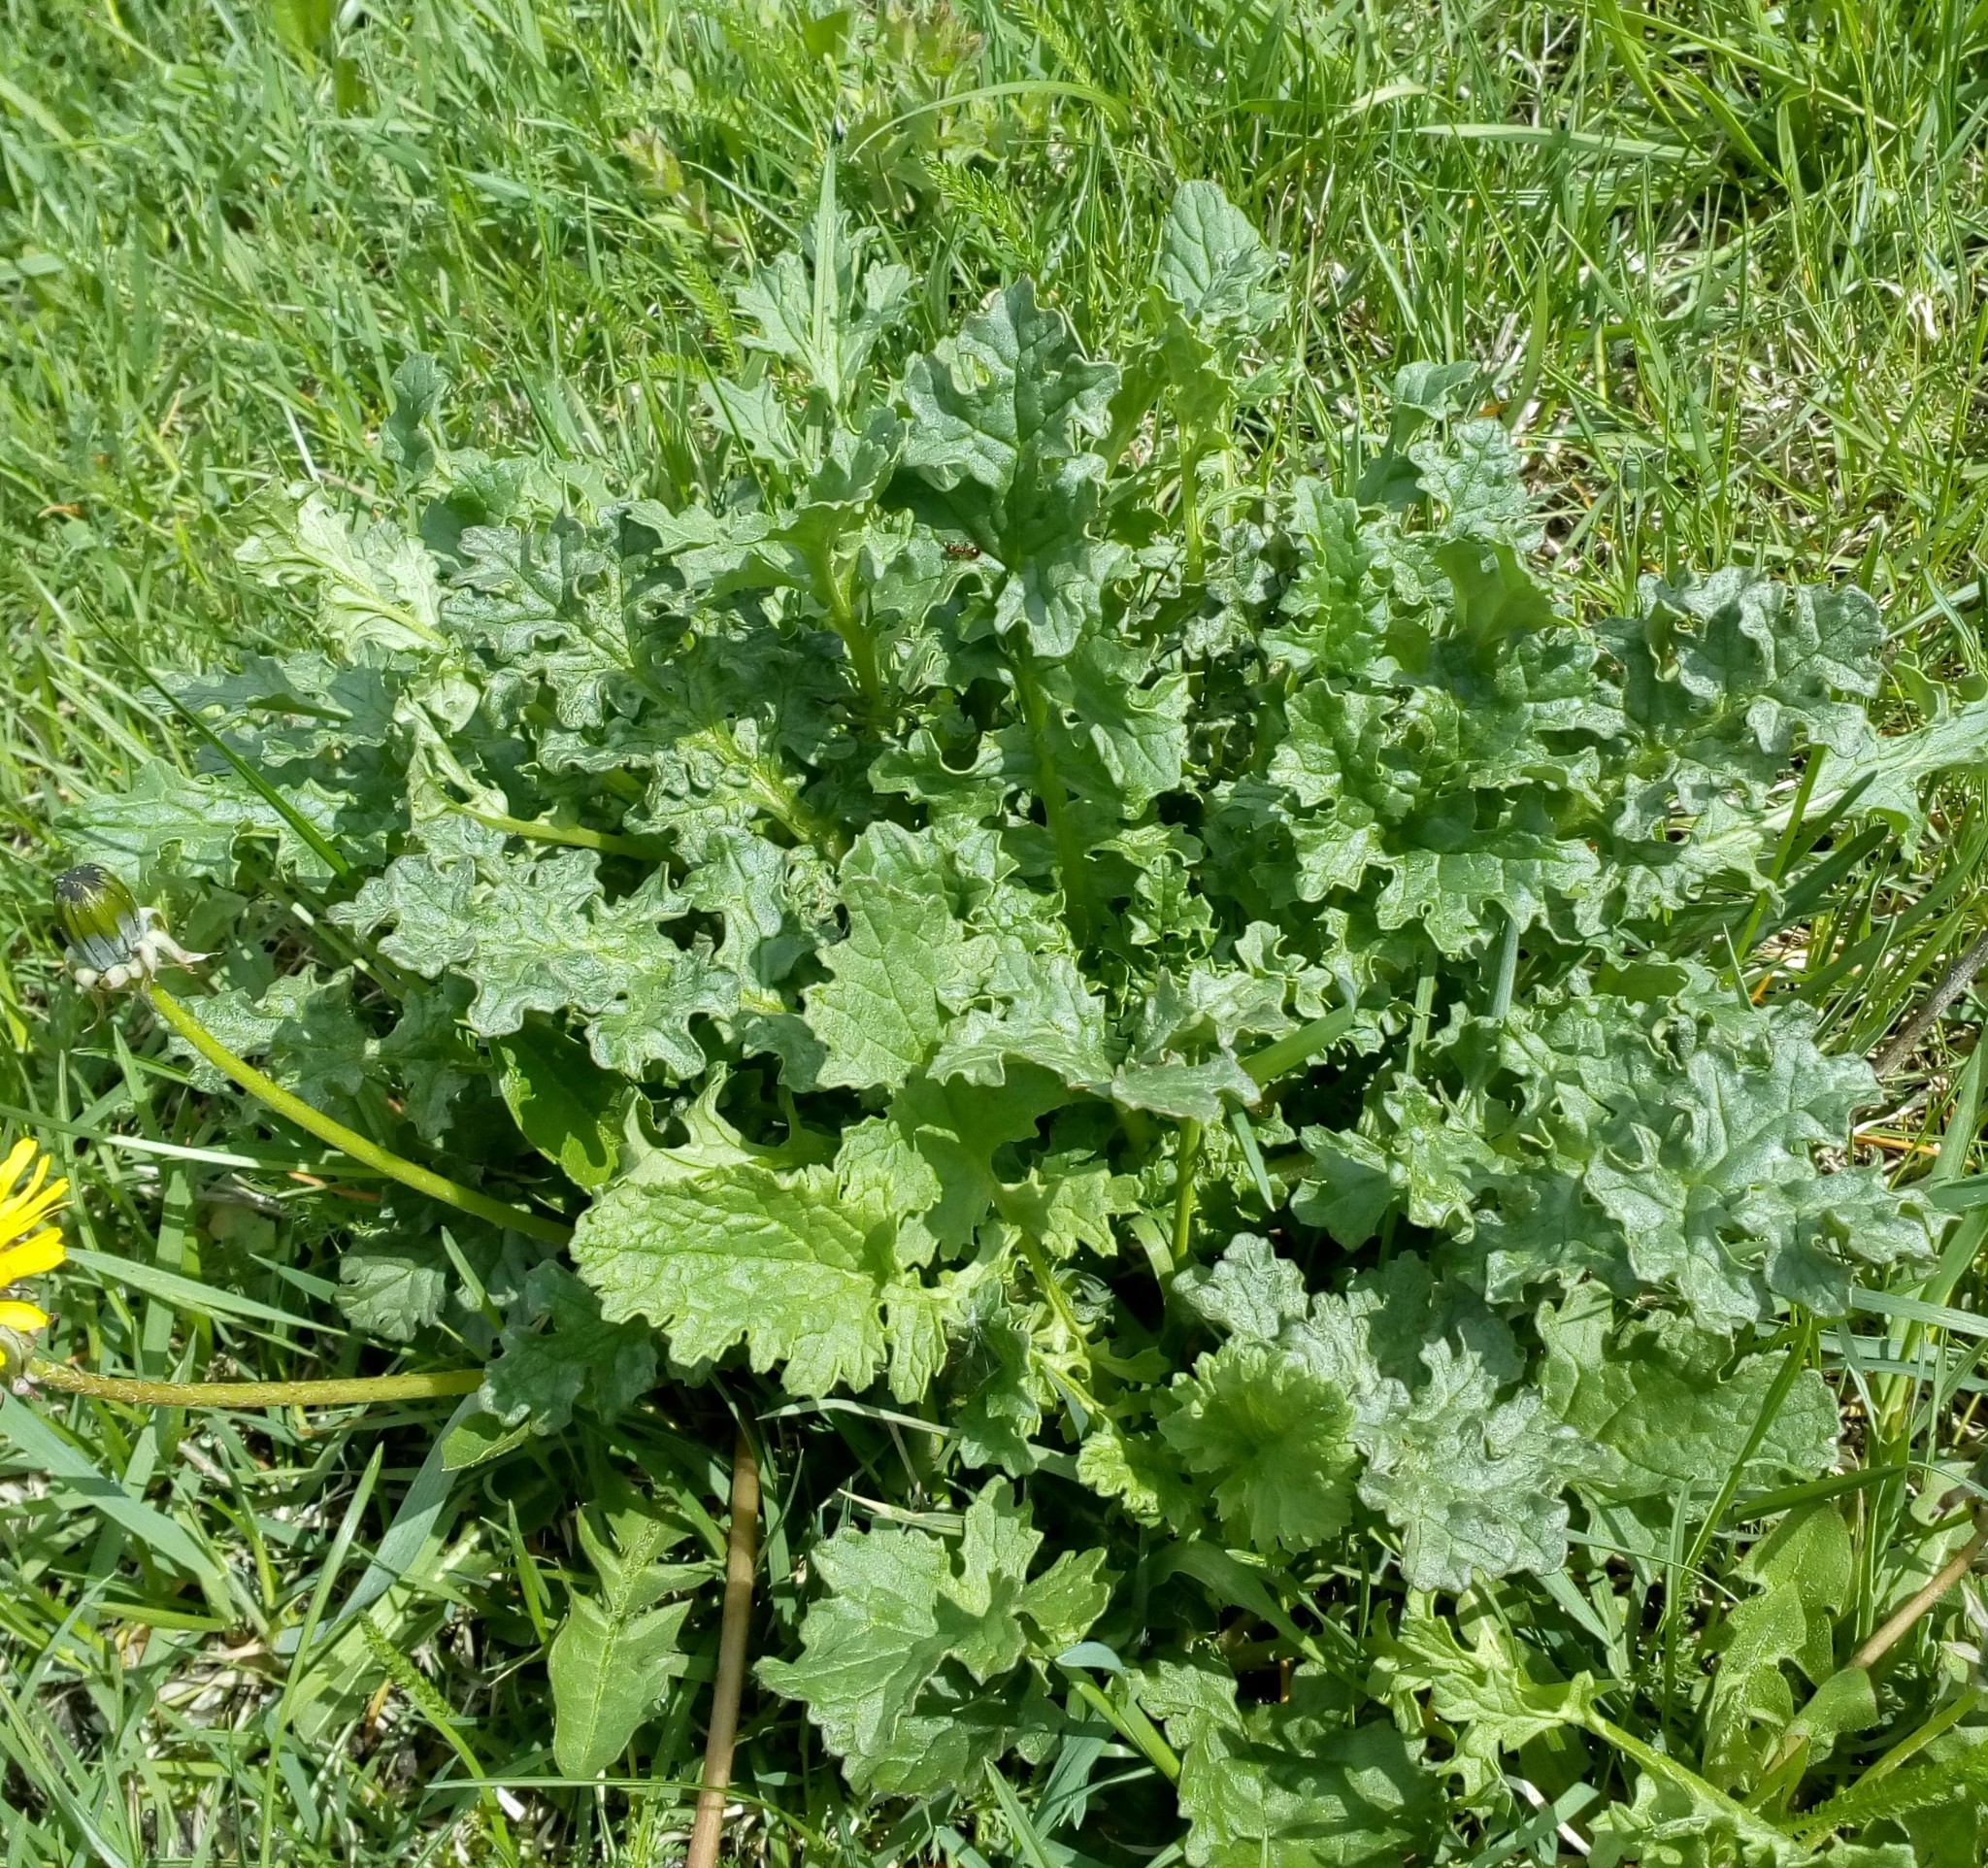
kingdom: Plantae
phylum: Tracheophyta
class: Magnoliopsida
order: Asterales
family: Asteraceae
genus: Jacobaea
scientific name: Jacobaea vulgaris
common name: Stinking willie
